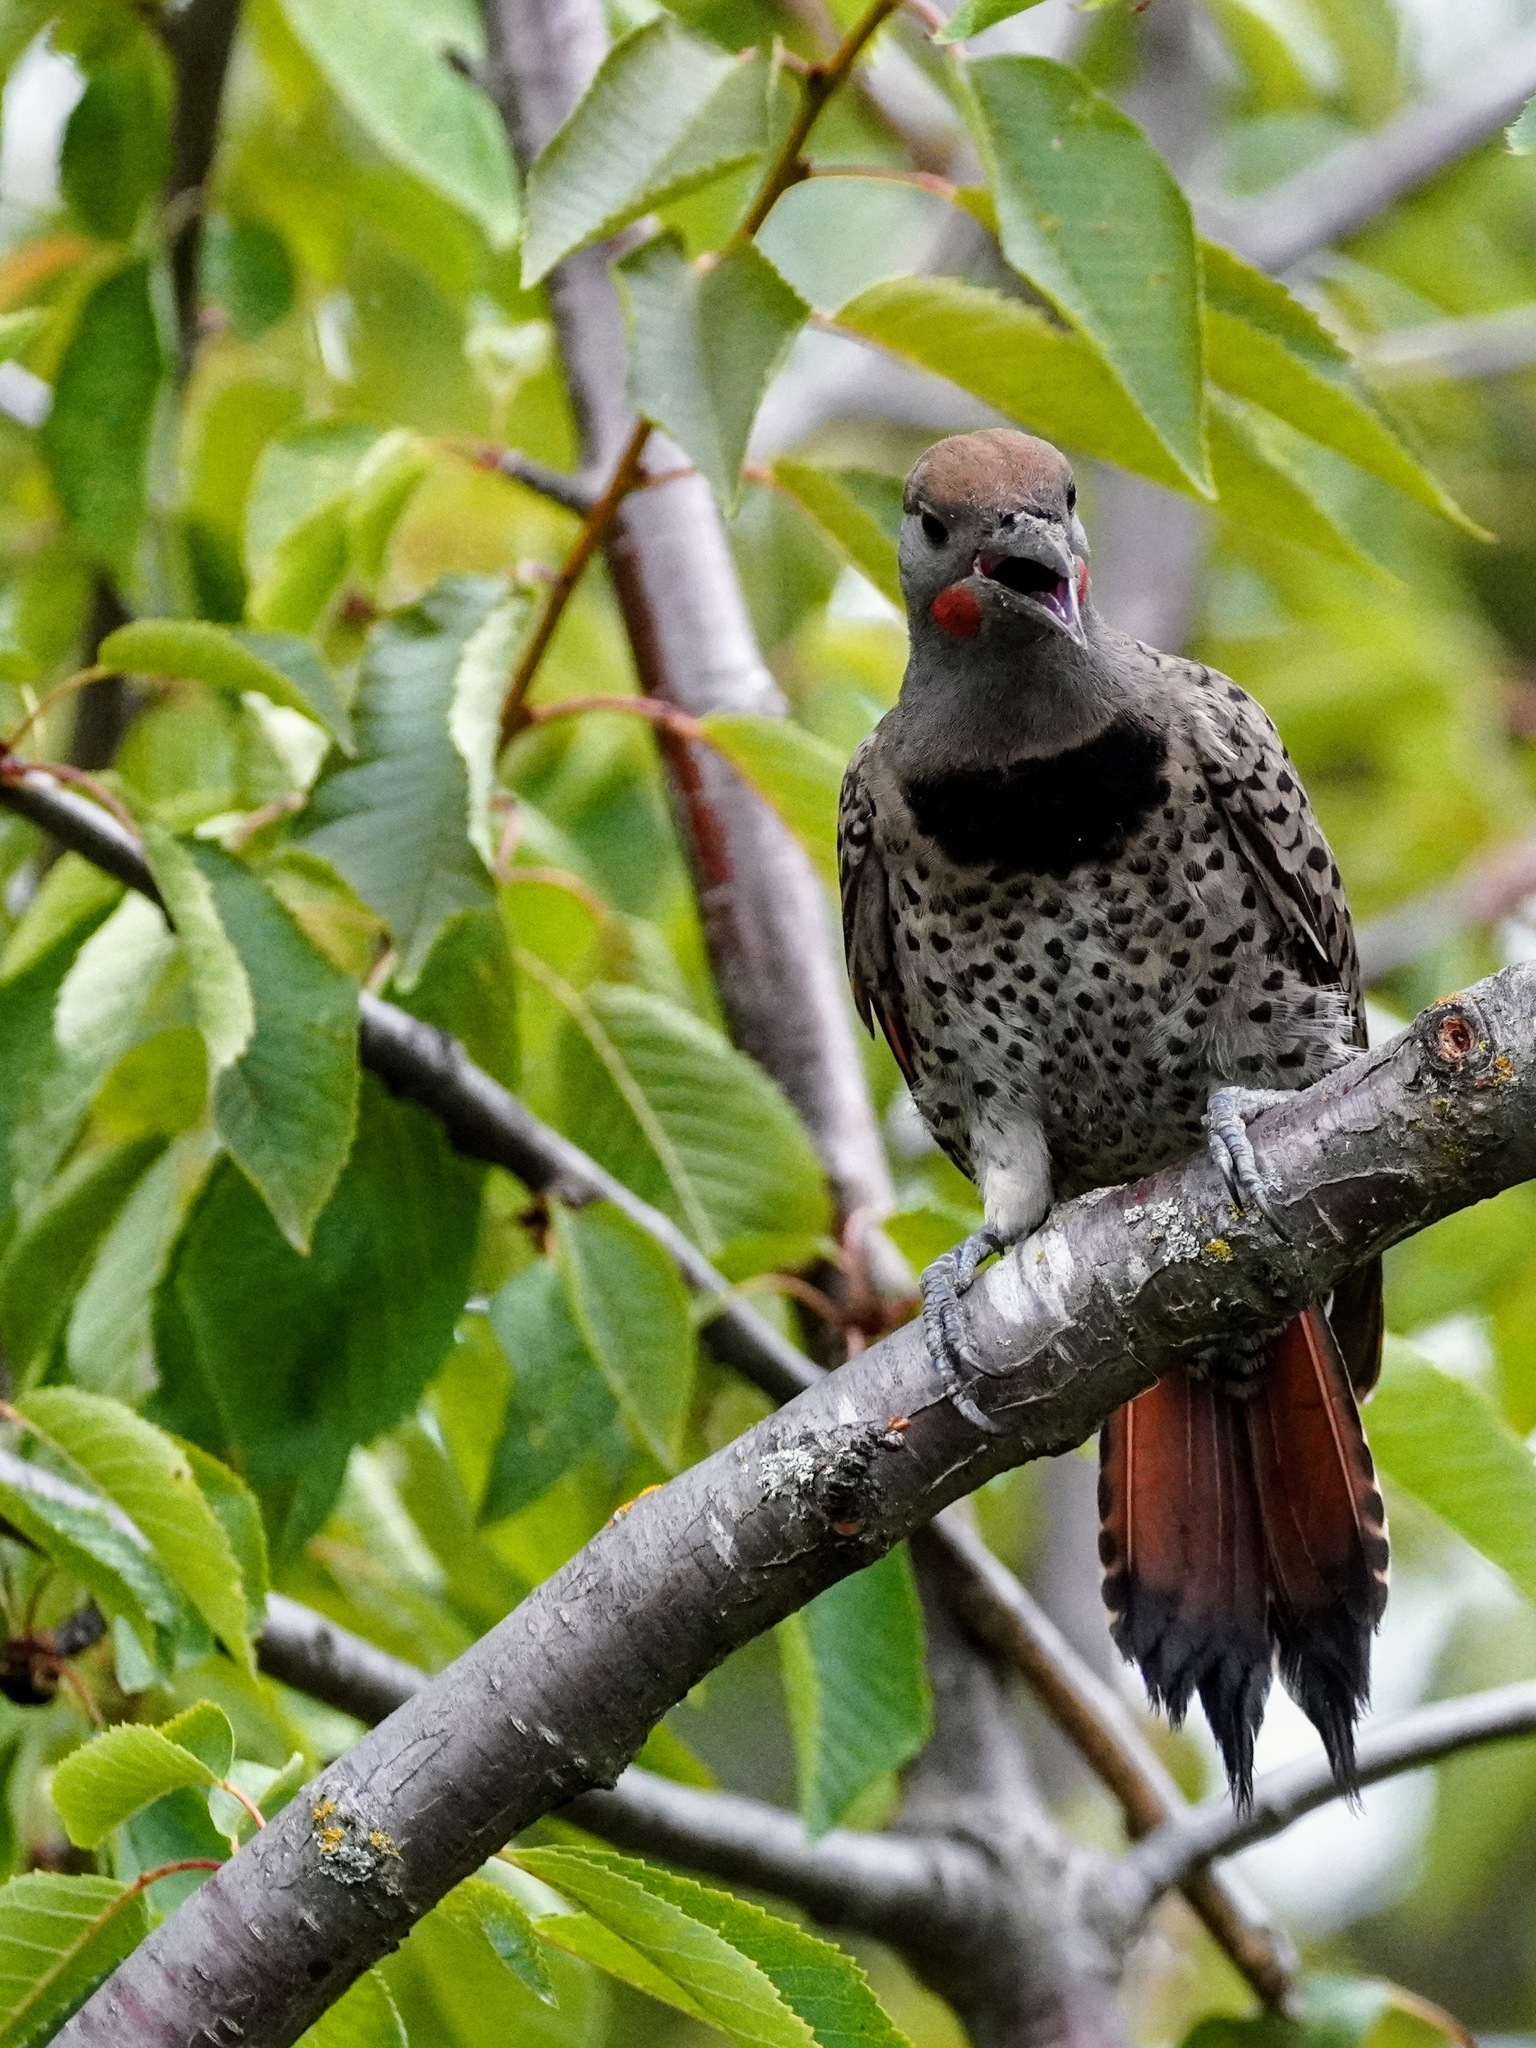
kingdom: Animalia
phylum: Chordata
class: Aves
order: Piciformes
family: Picidae
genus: Colaptes
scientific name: Colaptes auratus
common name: Northern flicker
